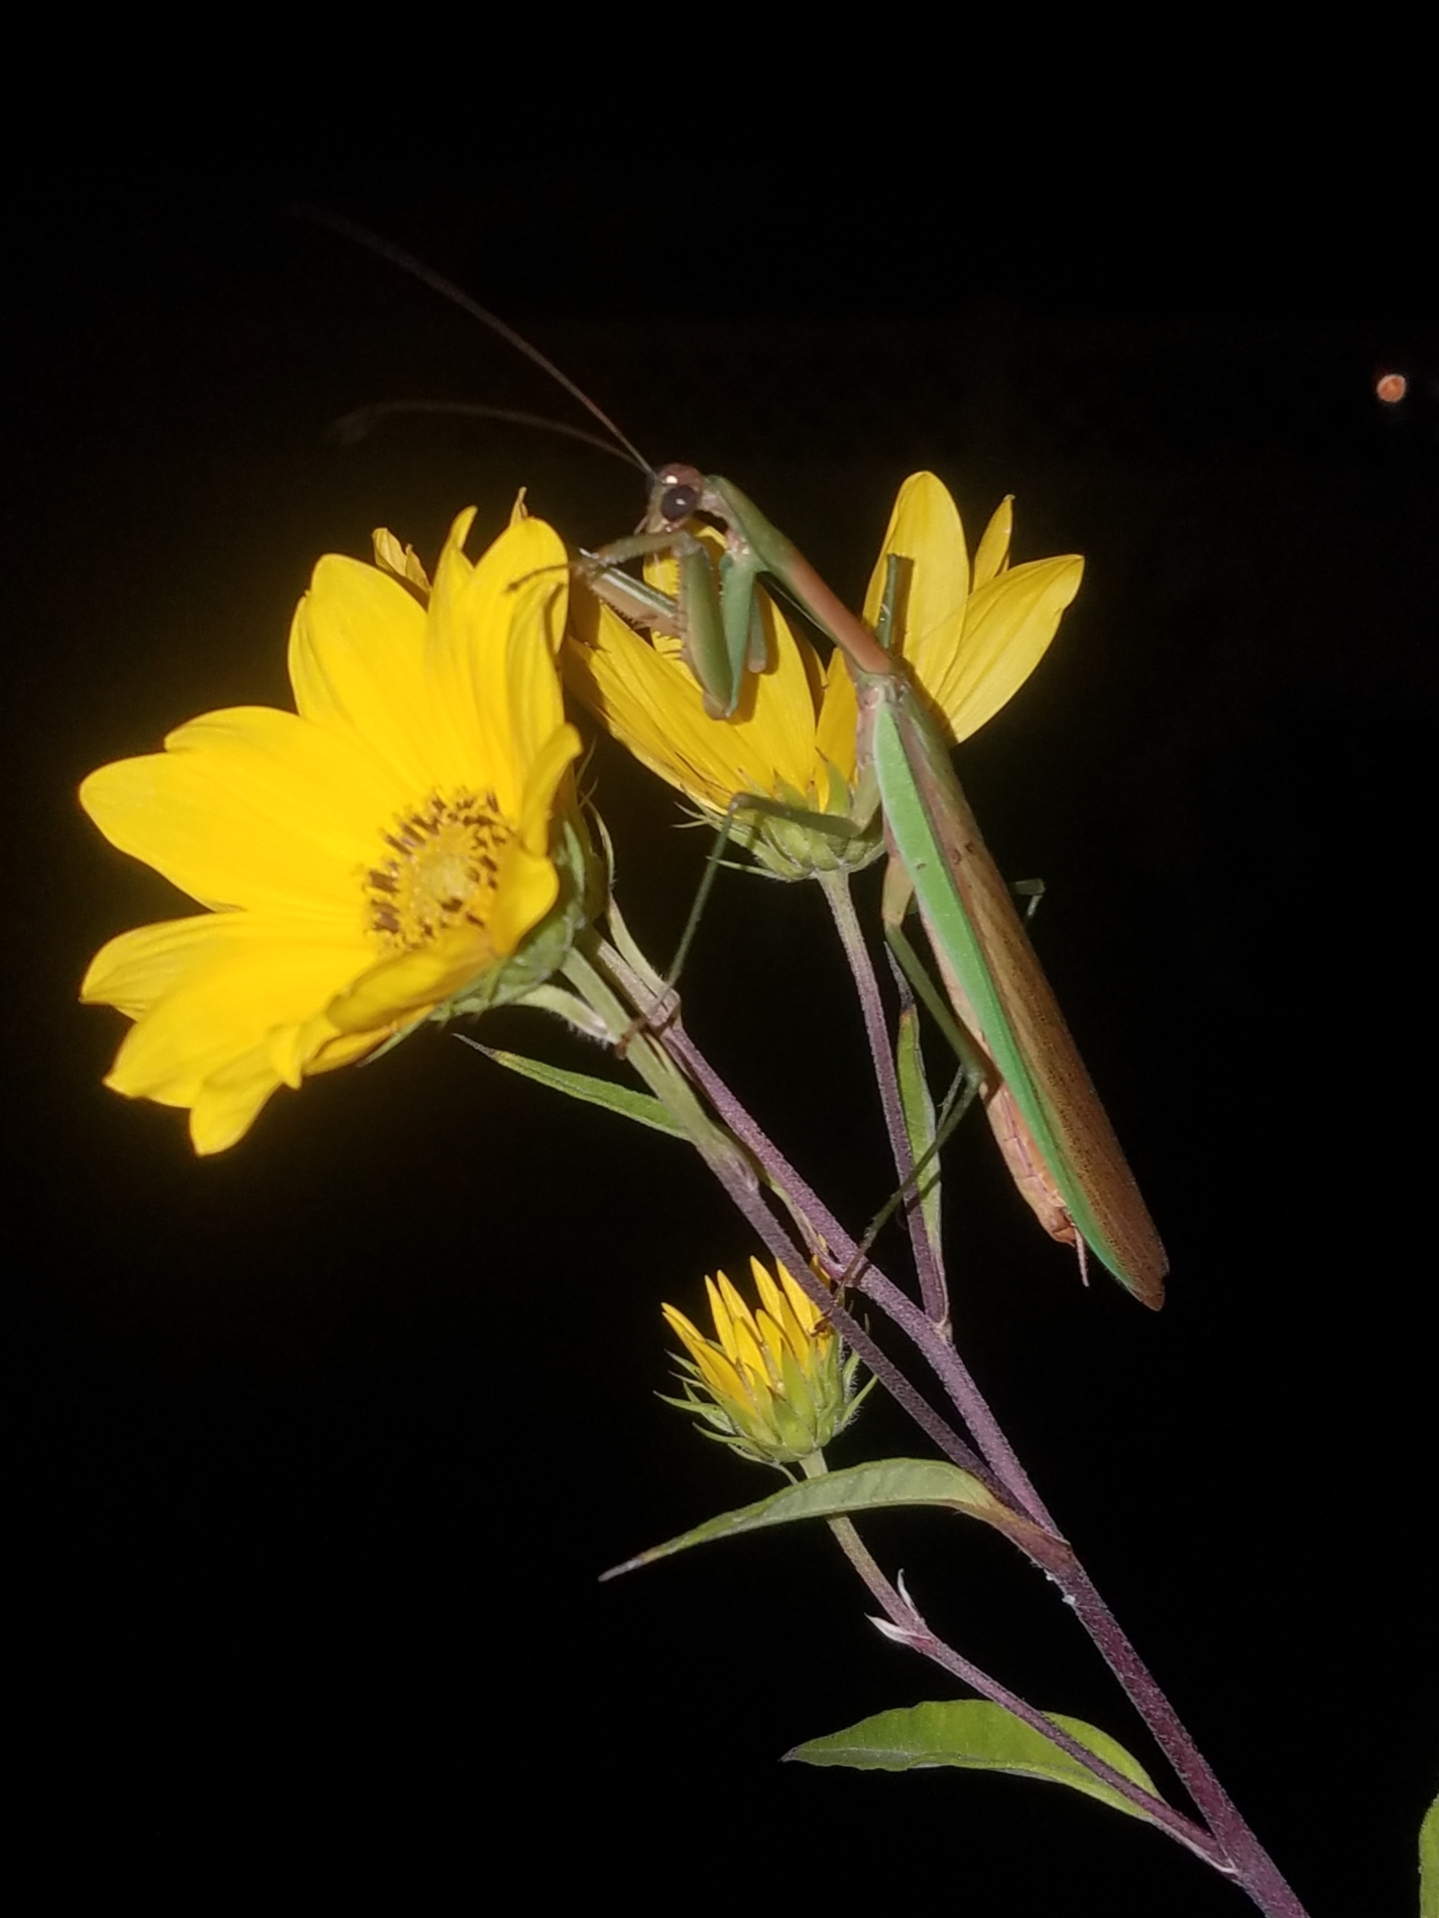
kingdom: Animalia
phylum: Arthropoda
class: Insecta
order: Mantodea
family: Mantidae
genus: Tenodera
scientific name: Tenodera sinensis
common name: Chinese mantis
